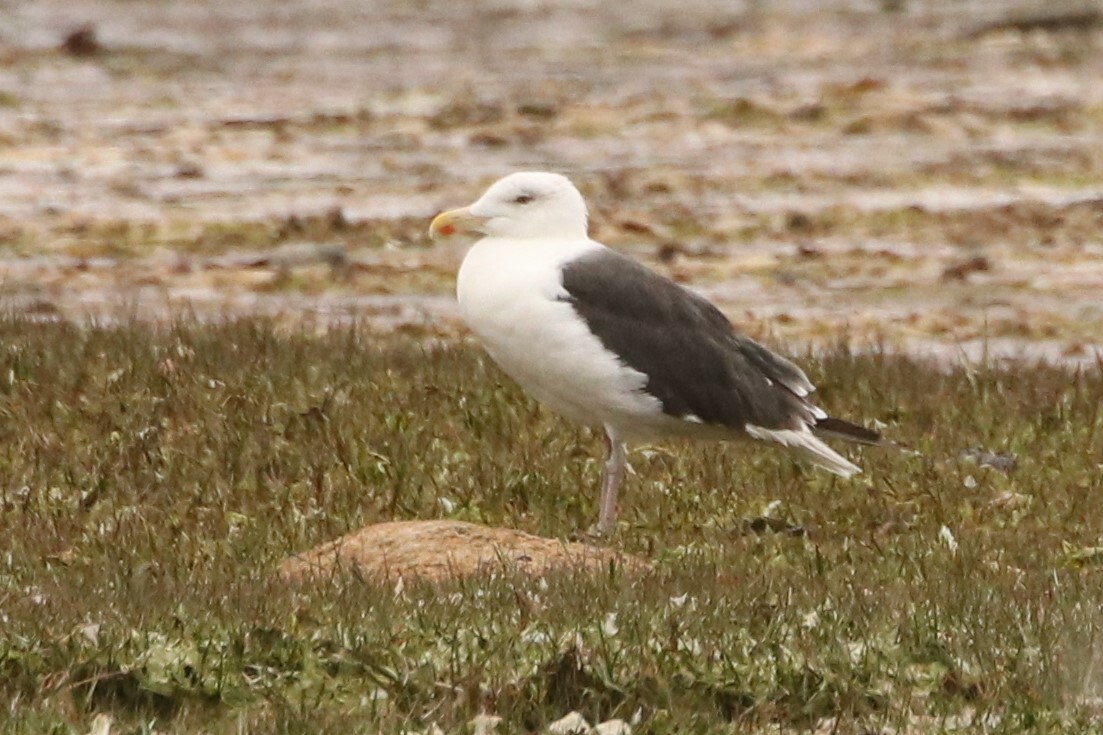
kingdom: Animalia
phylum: Chordata
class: Aves
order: Charadriiformes
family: Laridae
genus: Larus
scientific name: Larus marinus
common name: Great black-backed gull
